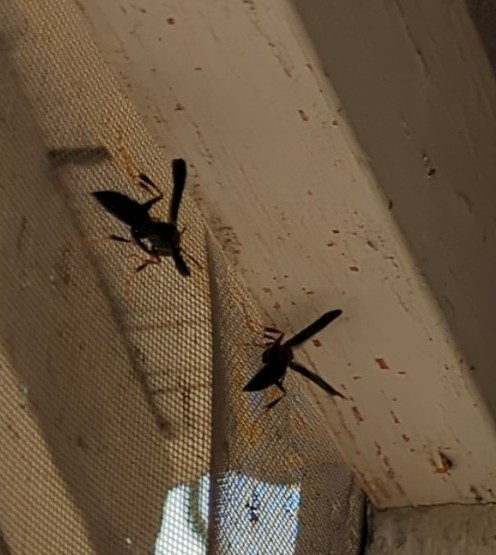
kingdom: Animalia
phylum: Arthropoda
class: Insecta
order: Hymenoptera
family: Eumenidae
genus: Polistes
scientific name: Polistes
